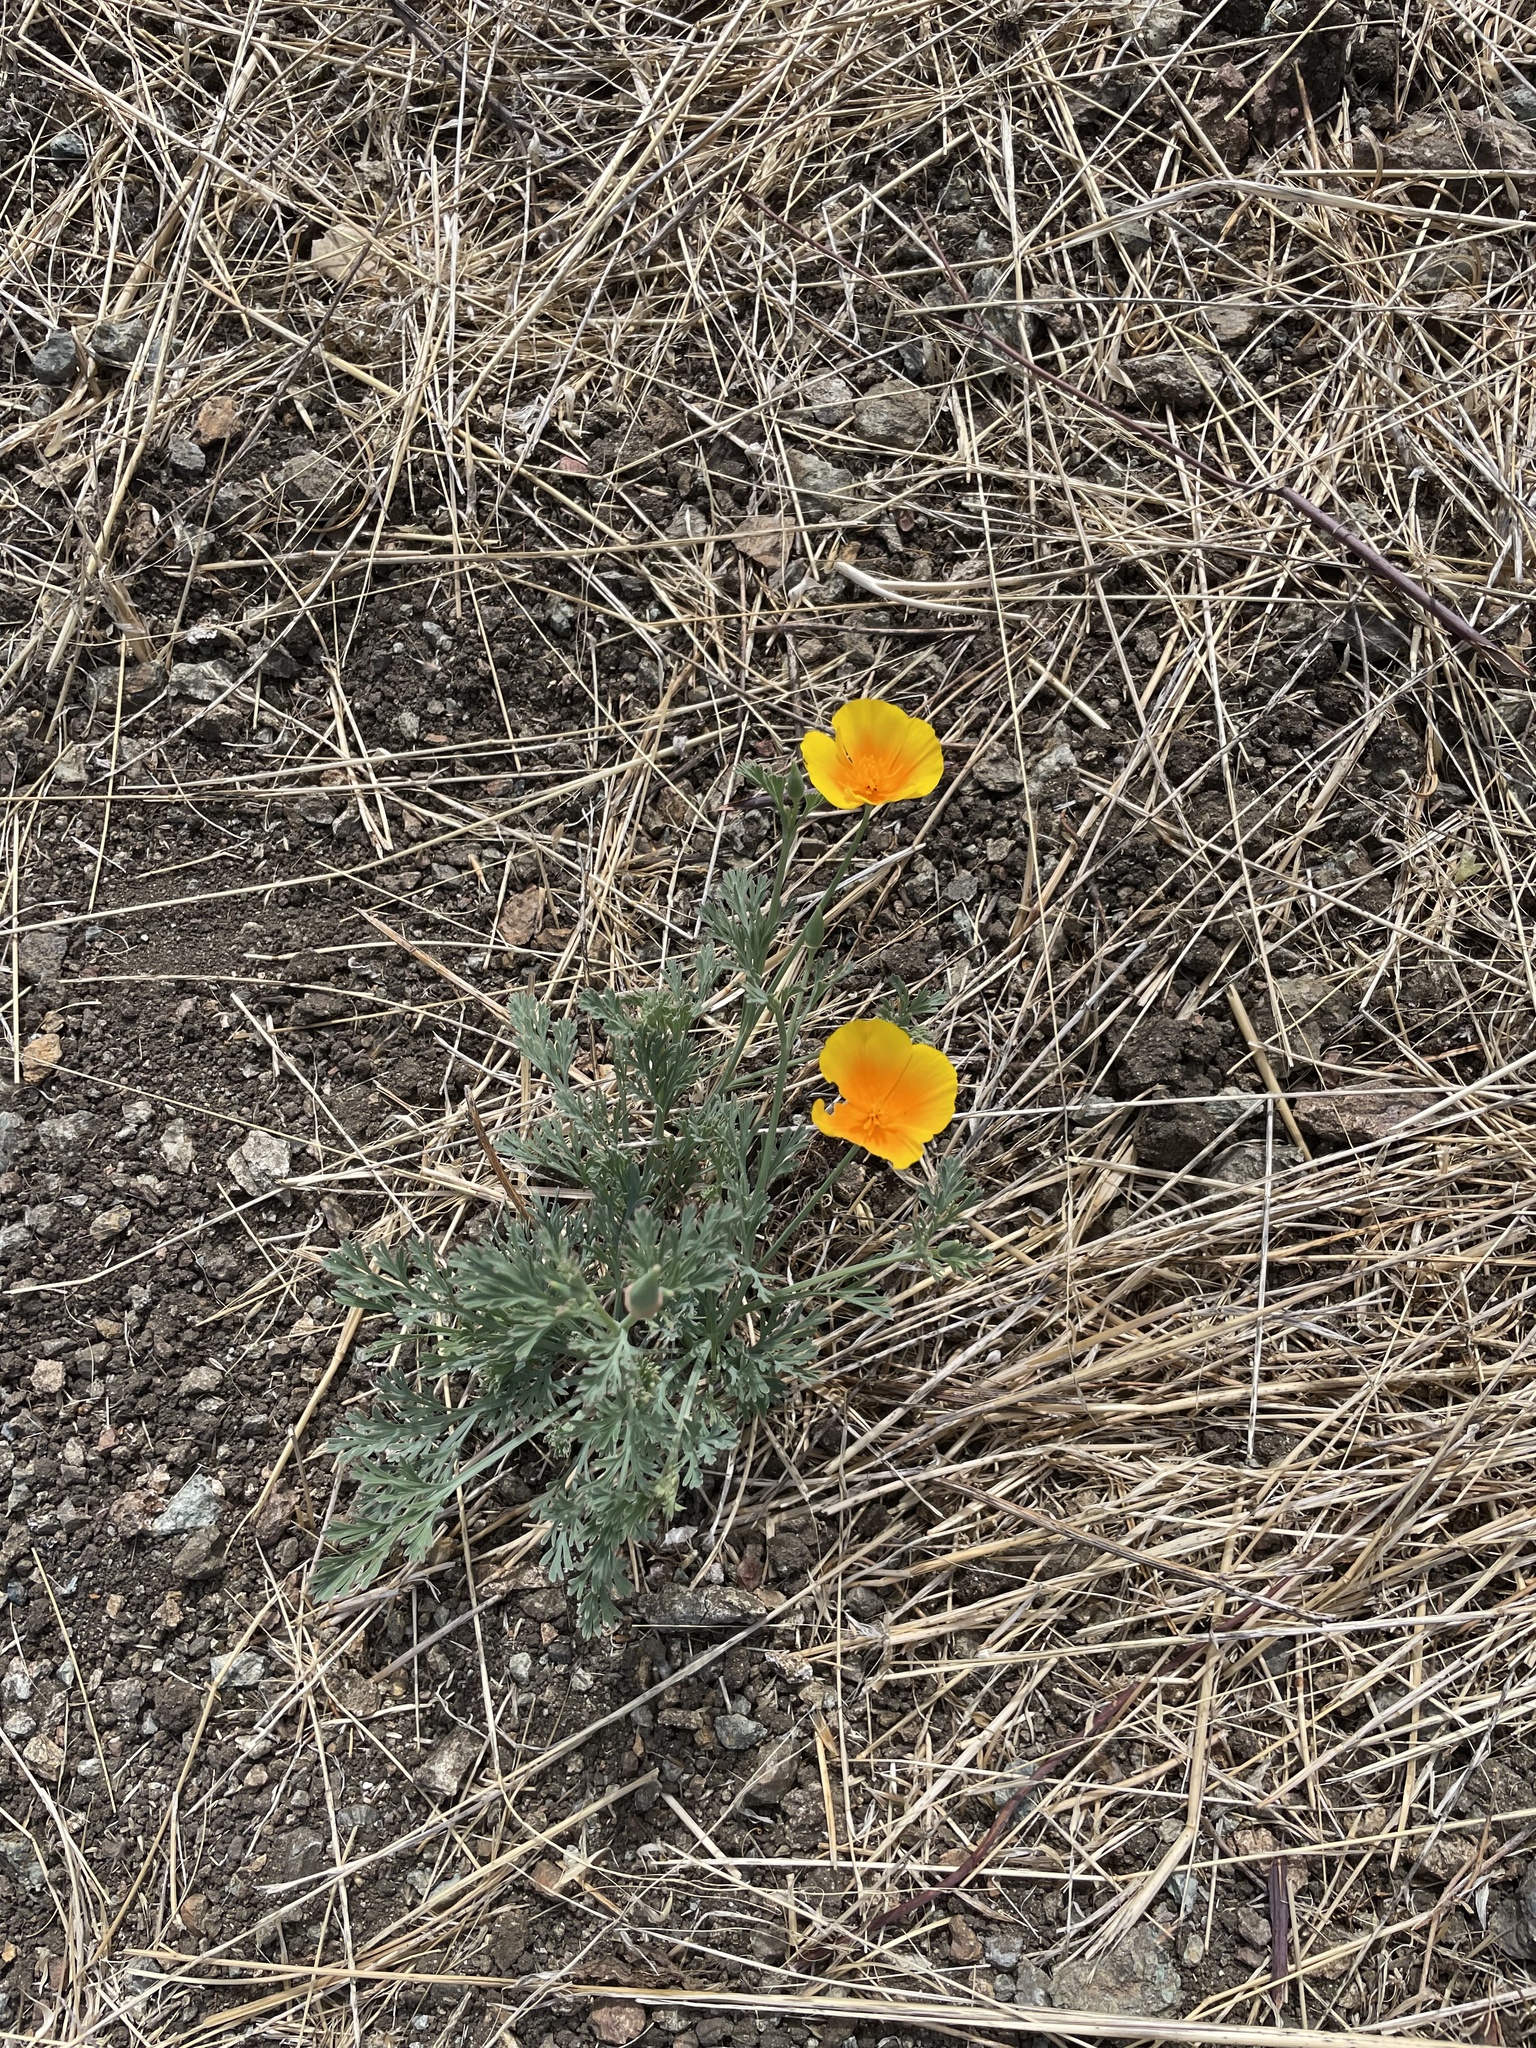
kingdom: Plantae
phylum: Tracheophyta
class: Magnoliopsida
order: Ranunculales
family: Papaveraceae
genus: Eschscholzia
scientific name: Eschscholzia californica
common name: California poppy
